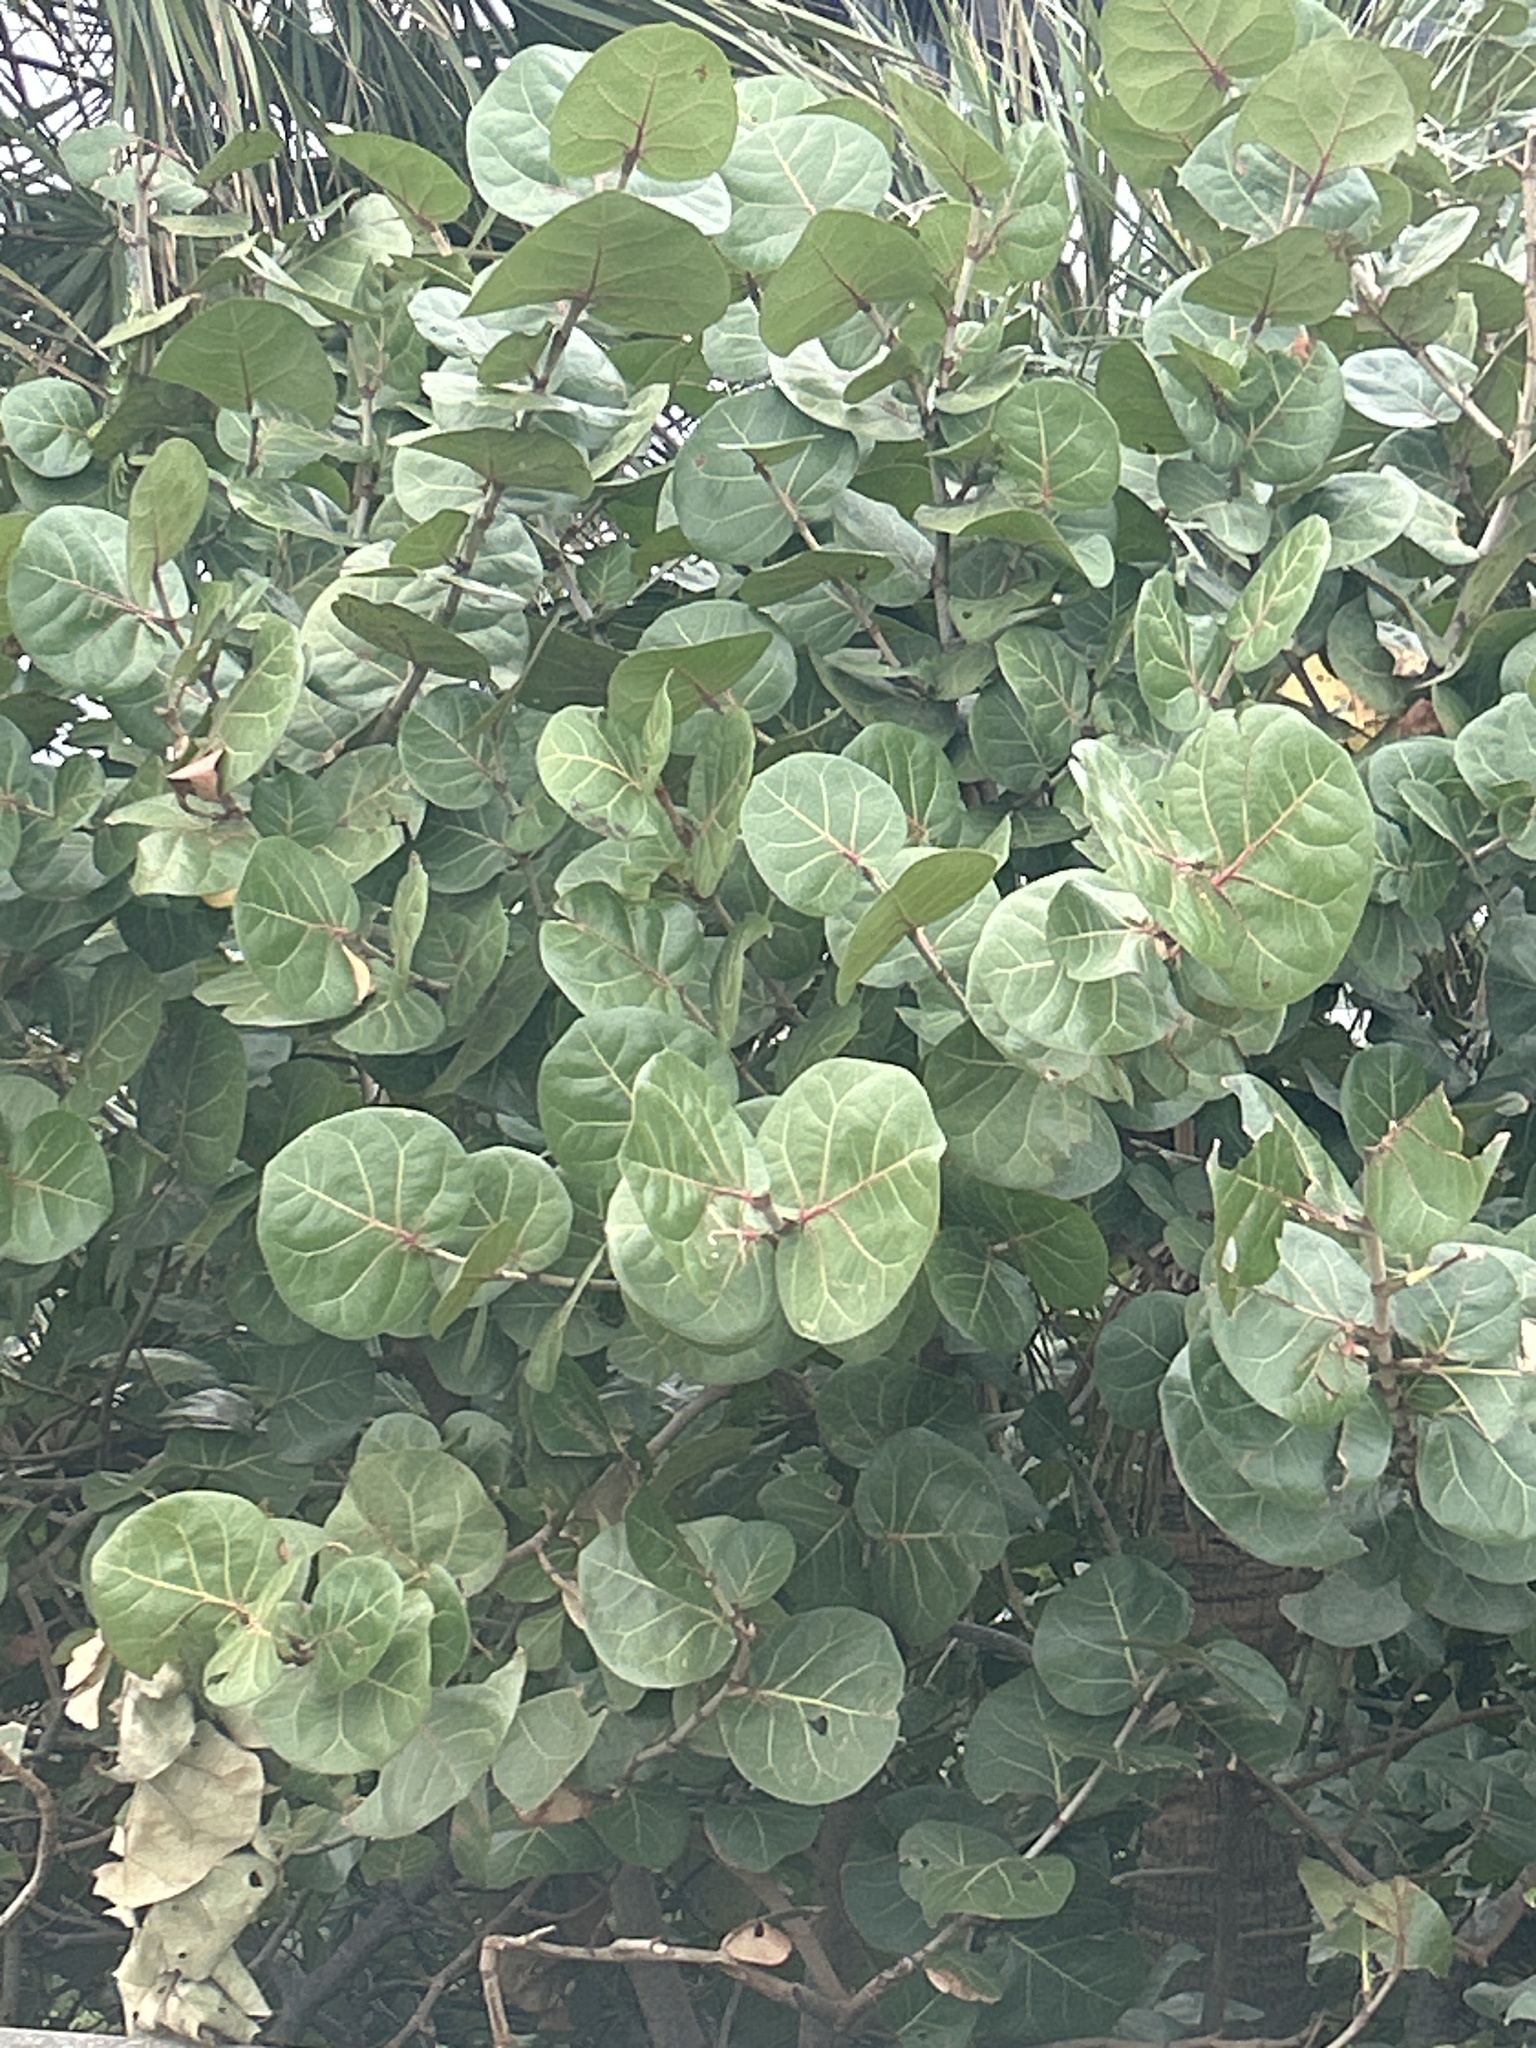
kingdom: Plantae
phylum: Tracheophyta
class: Magnoliopsida
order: Caryophyllales
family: Polygonaceae
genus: Coccoloba
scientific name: Coccoloba uvifera
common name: Seagrape
